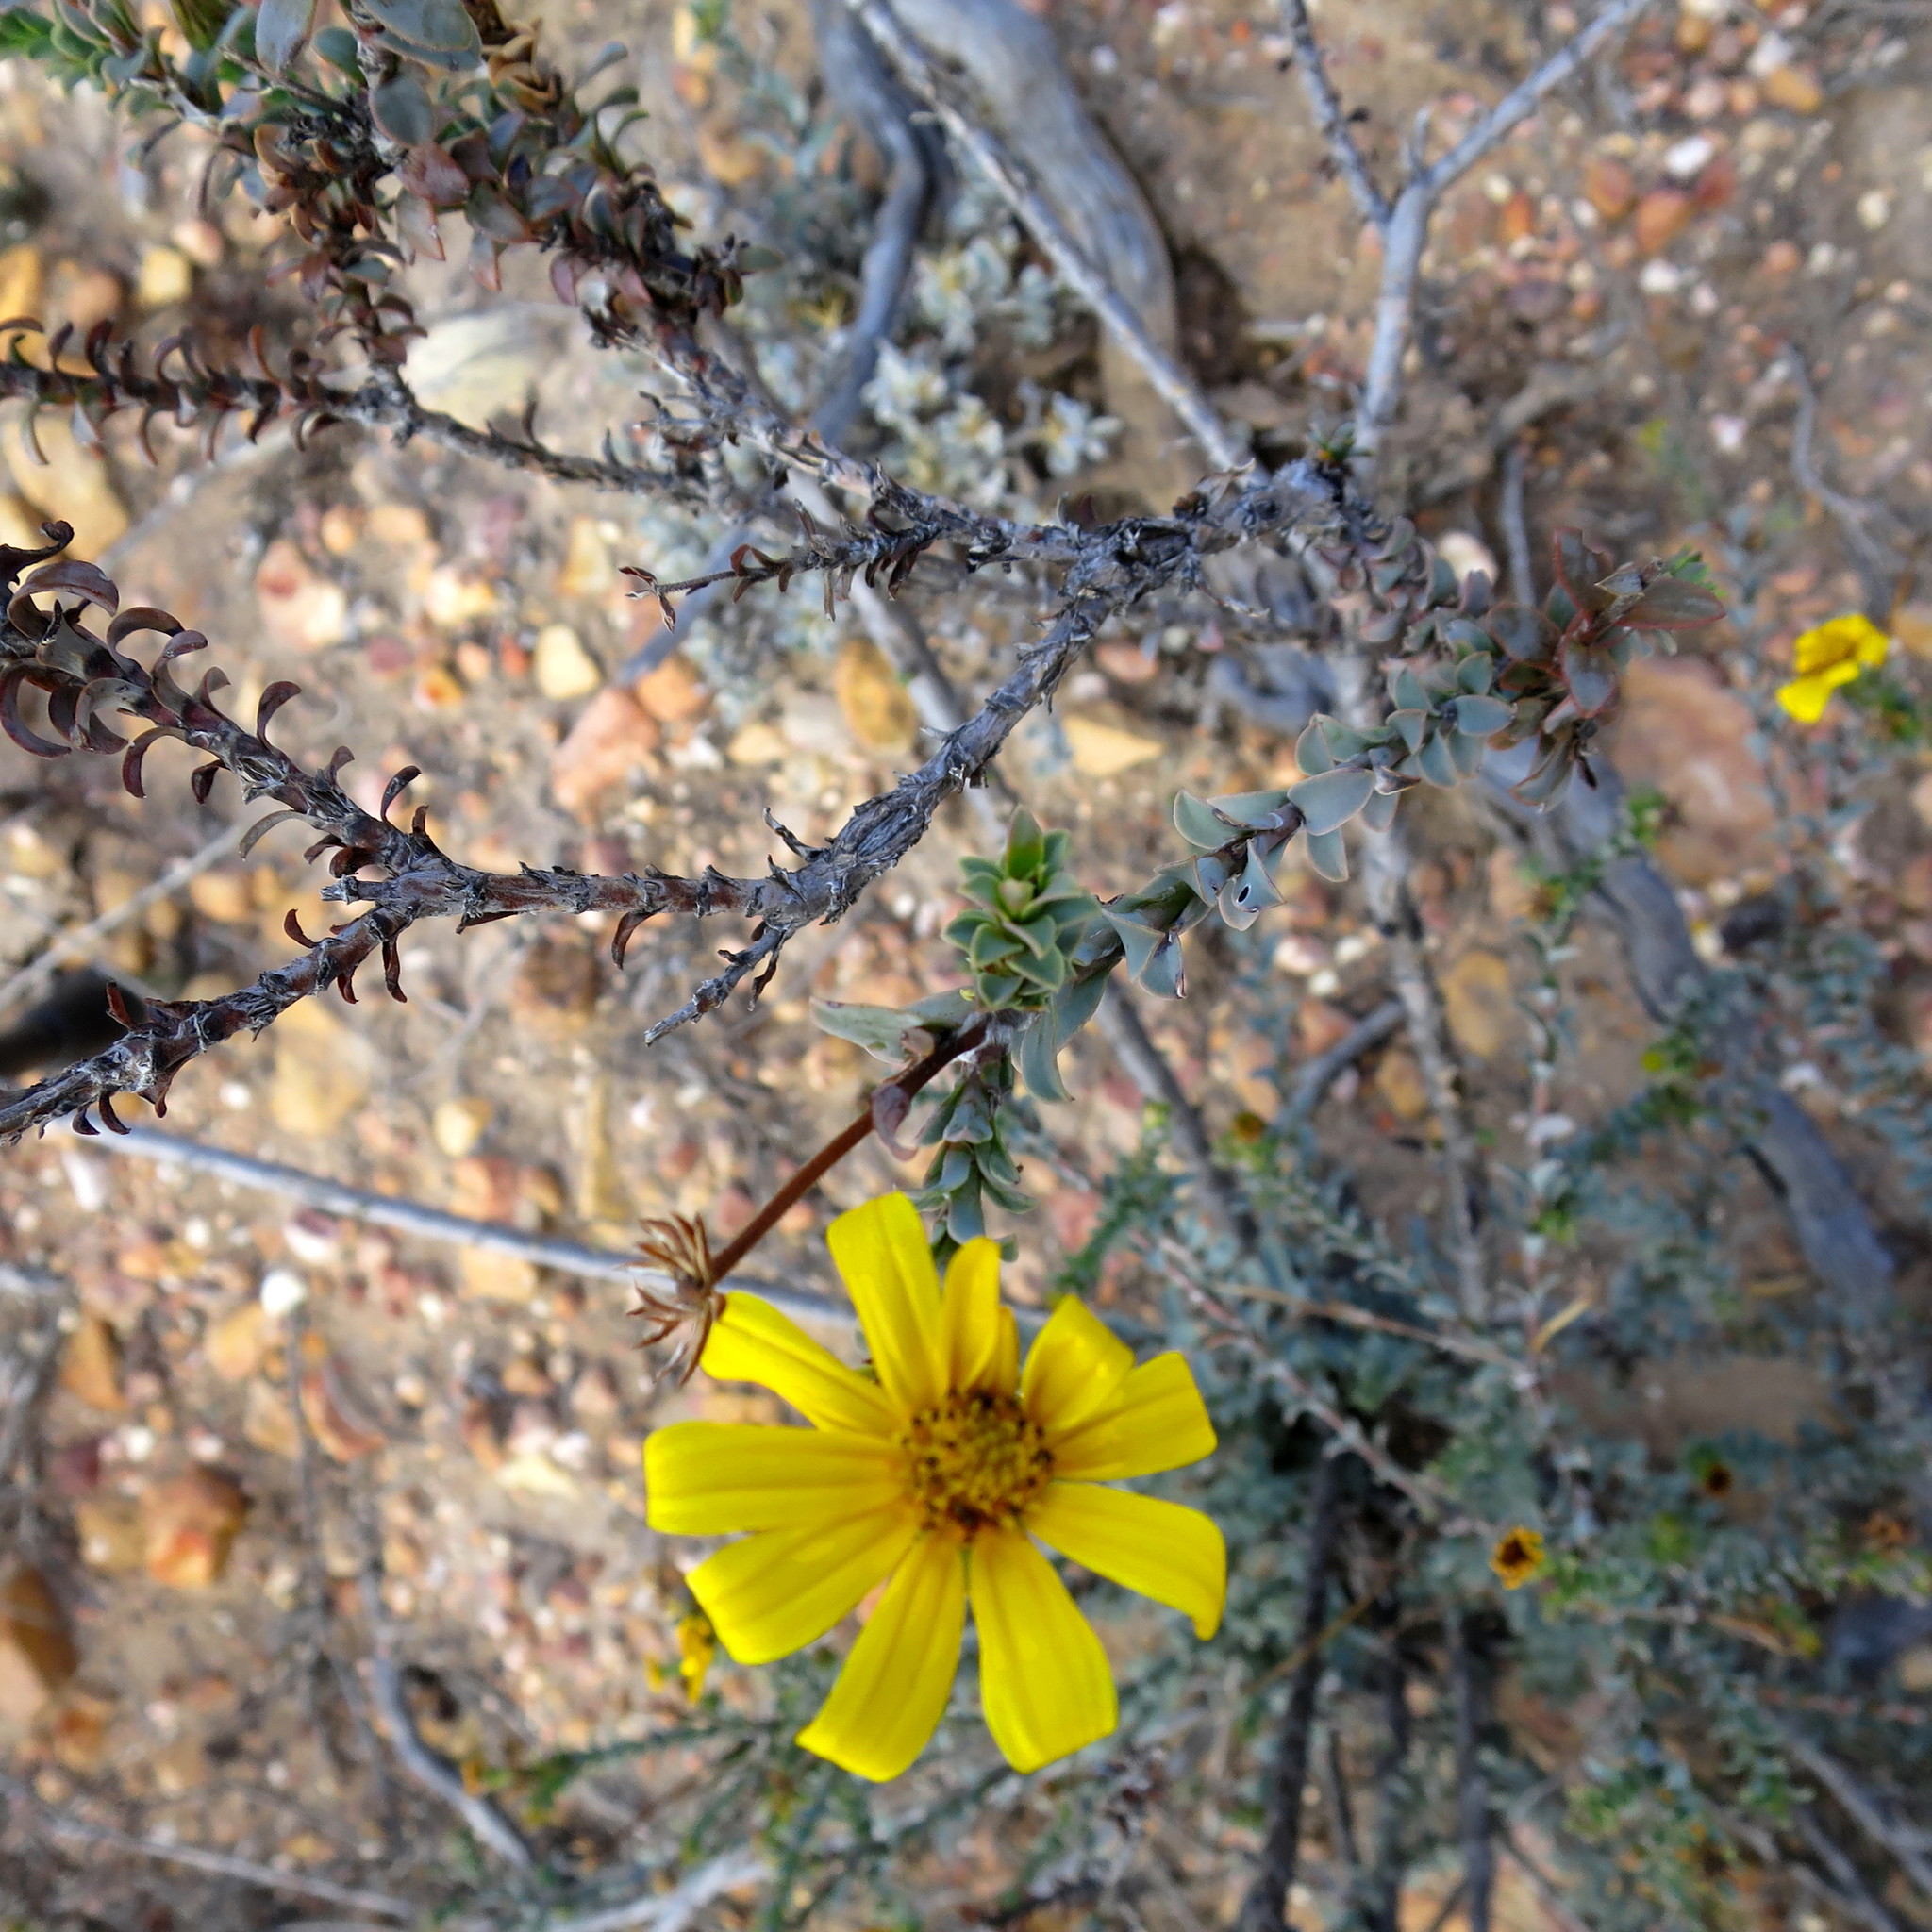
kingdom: Plantae
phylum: Tracheophyta
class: Magnoliopsida
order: Asterales
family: Asteraceae
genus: Osteospermum
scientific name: Osteospermum polygaloides
